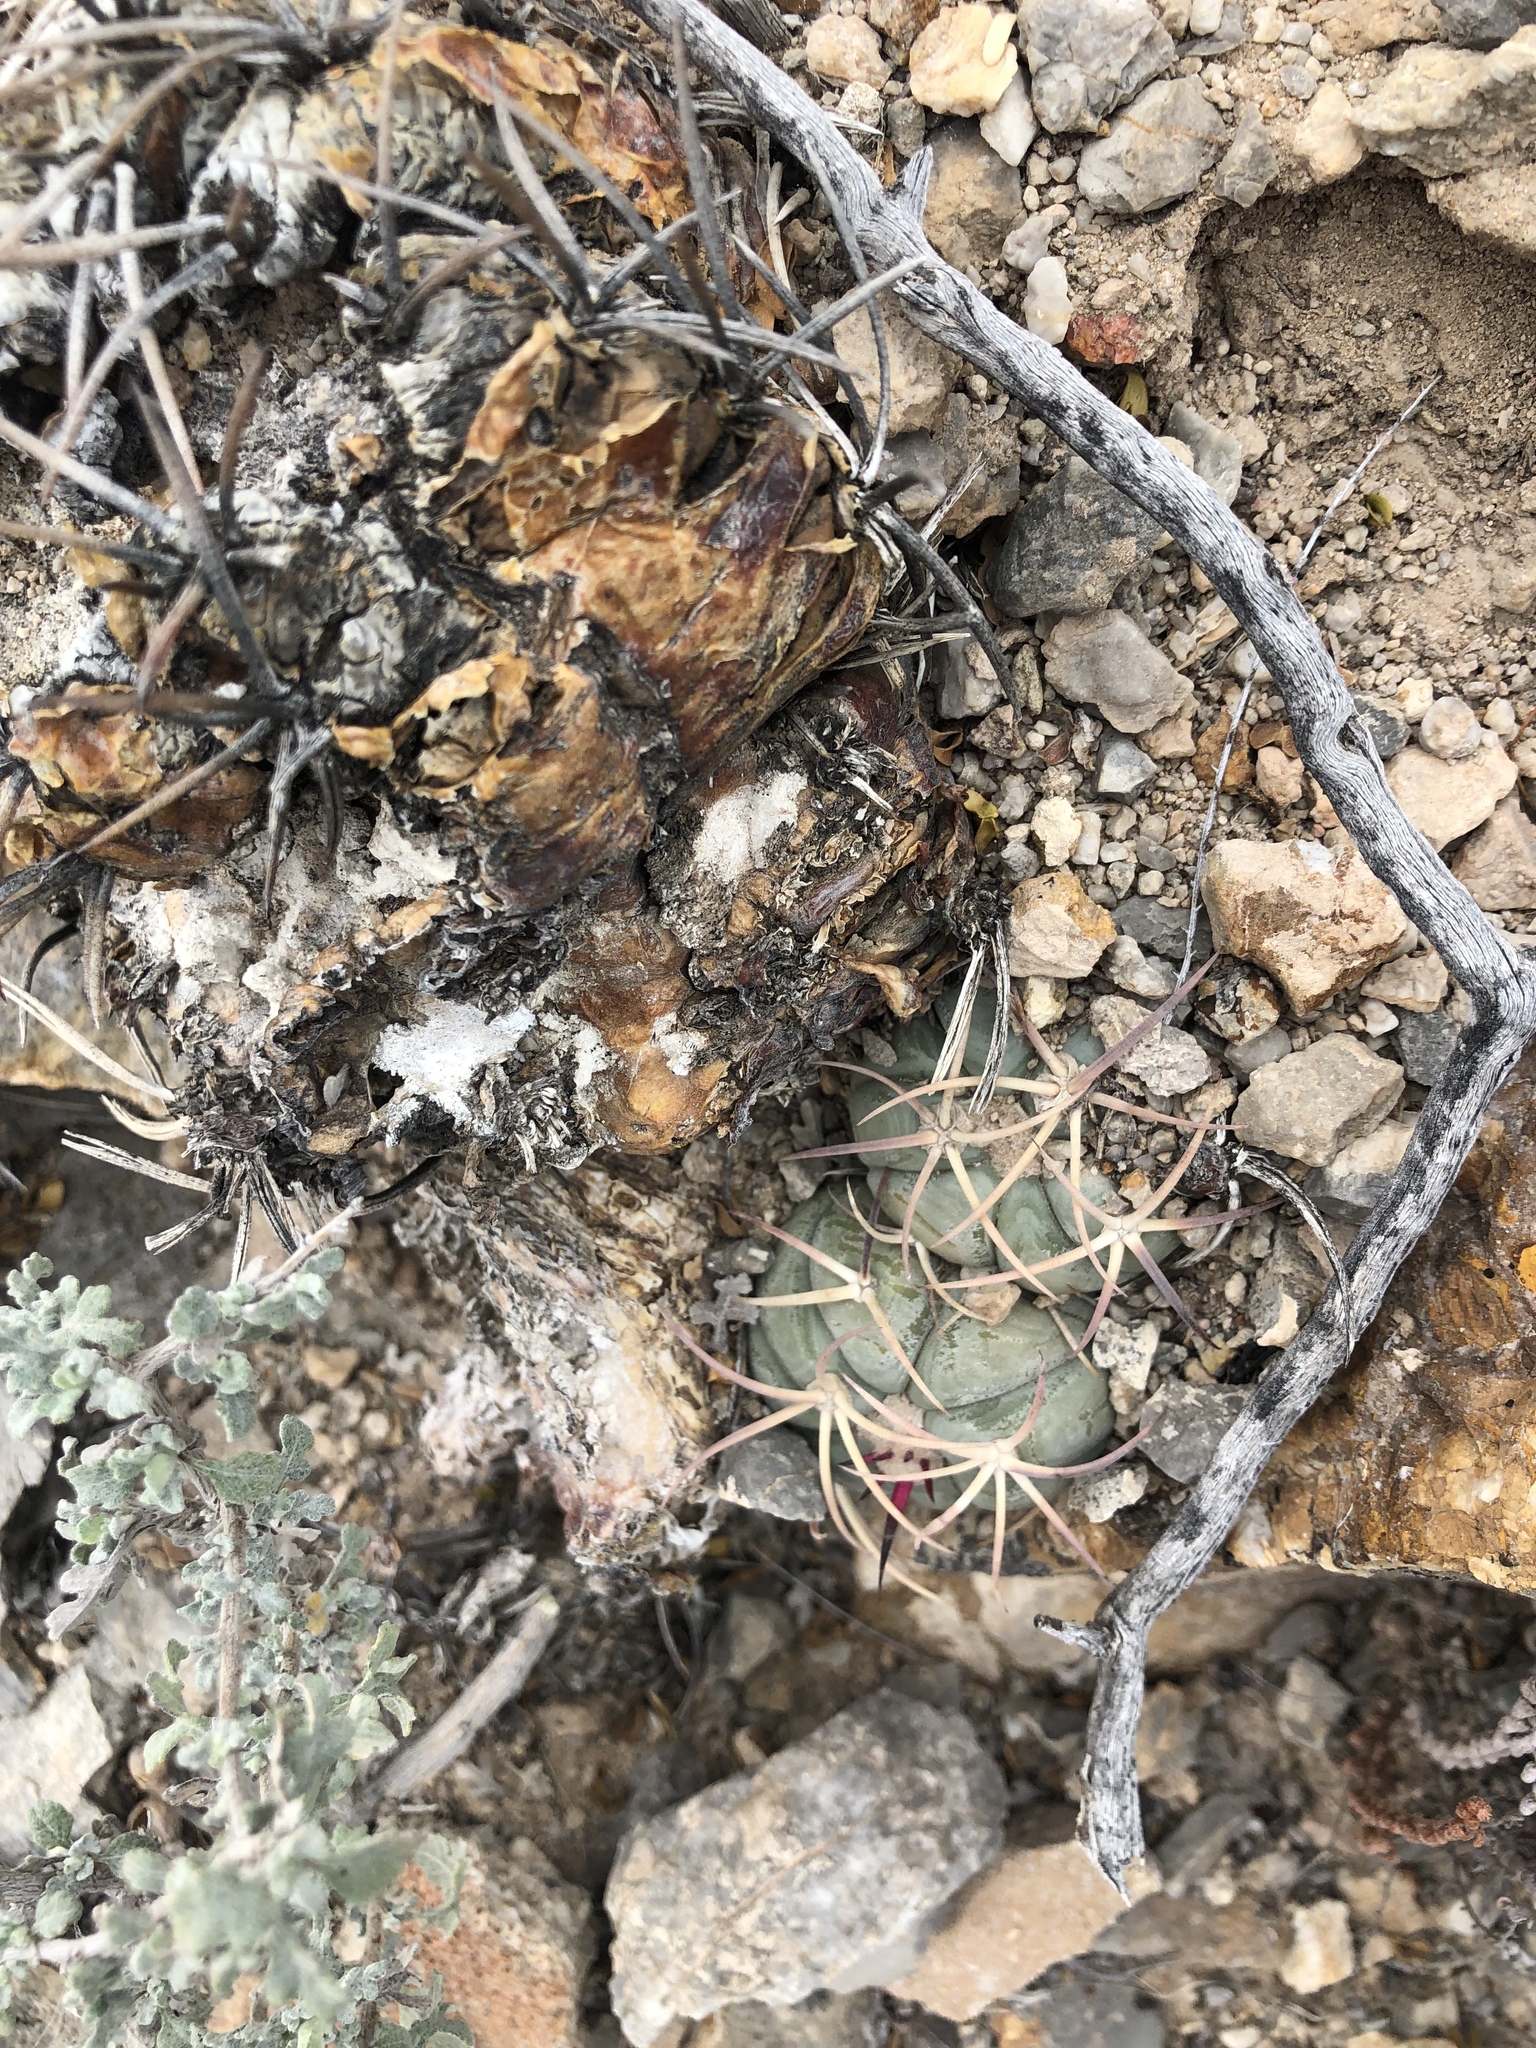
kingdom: Plantae
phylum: Tracheophyta
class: Magnoliopsida
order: Caryophyllales
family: Cactaceae
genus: Echinocactus
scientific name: Echinocactus horizonthalonius
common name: Devilshead
